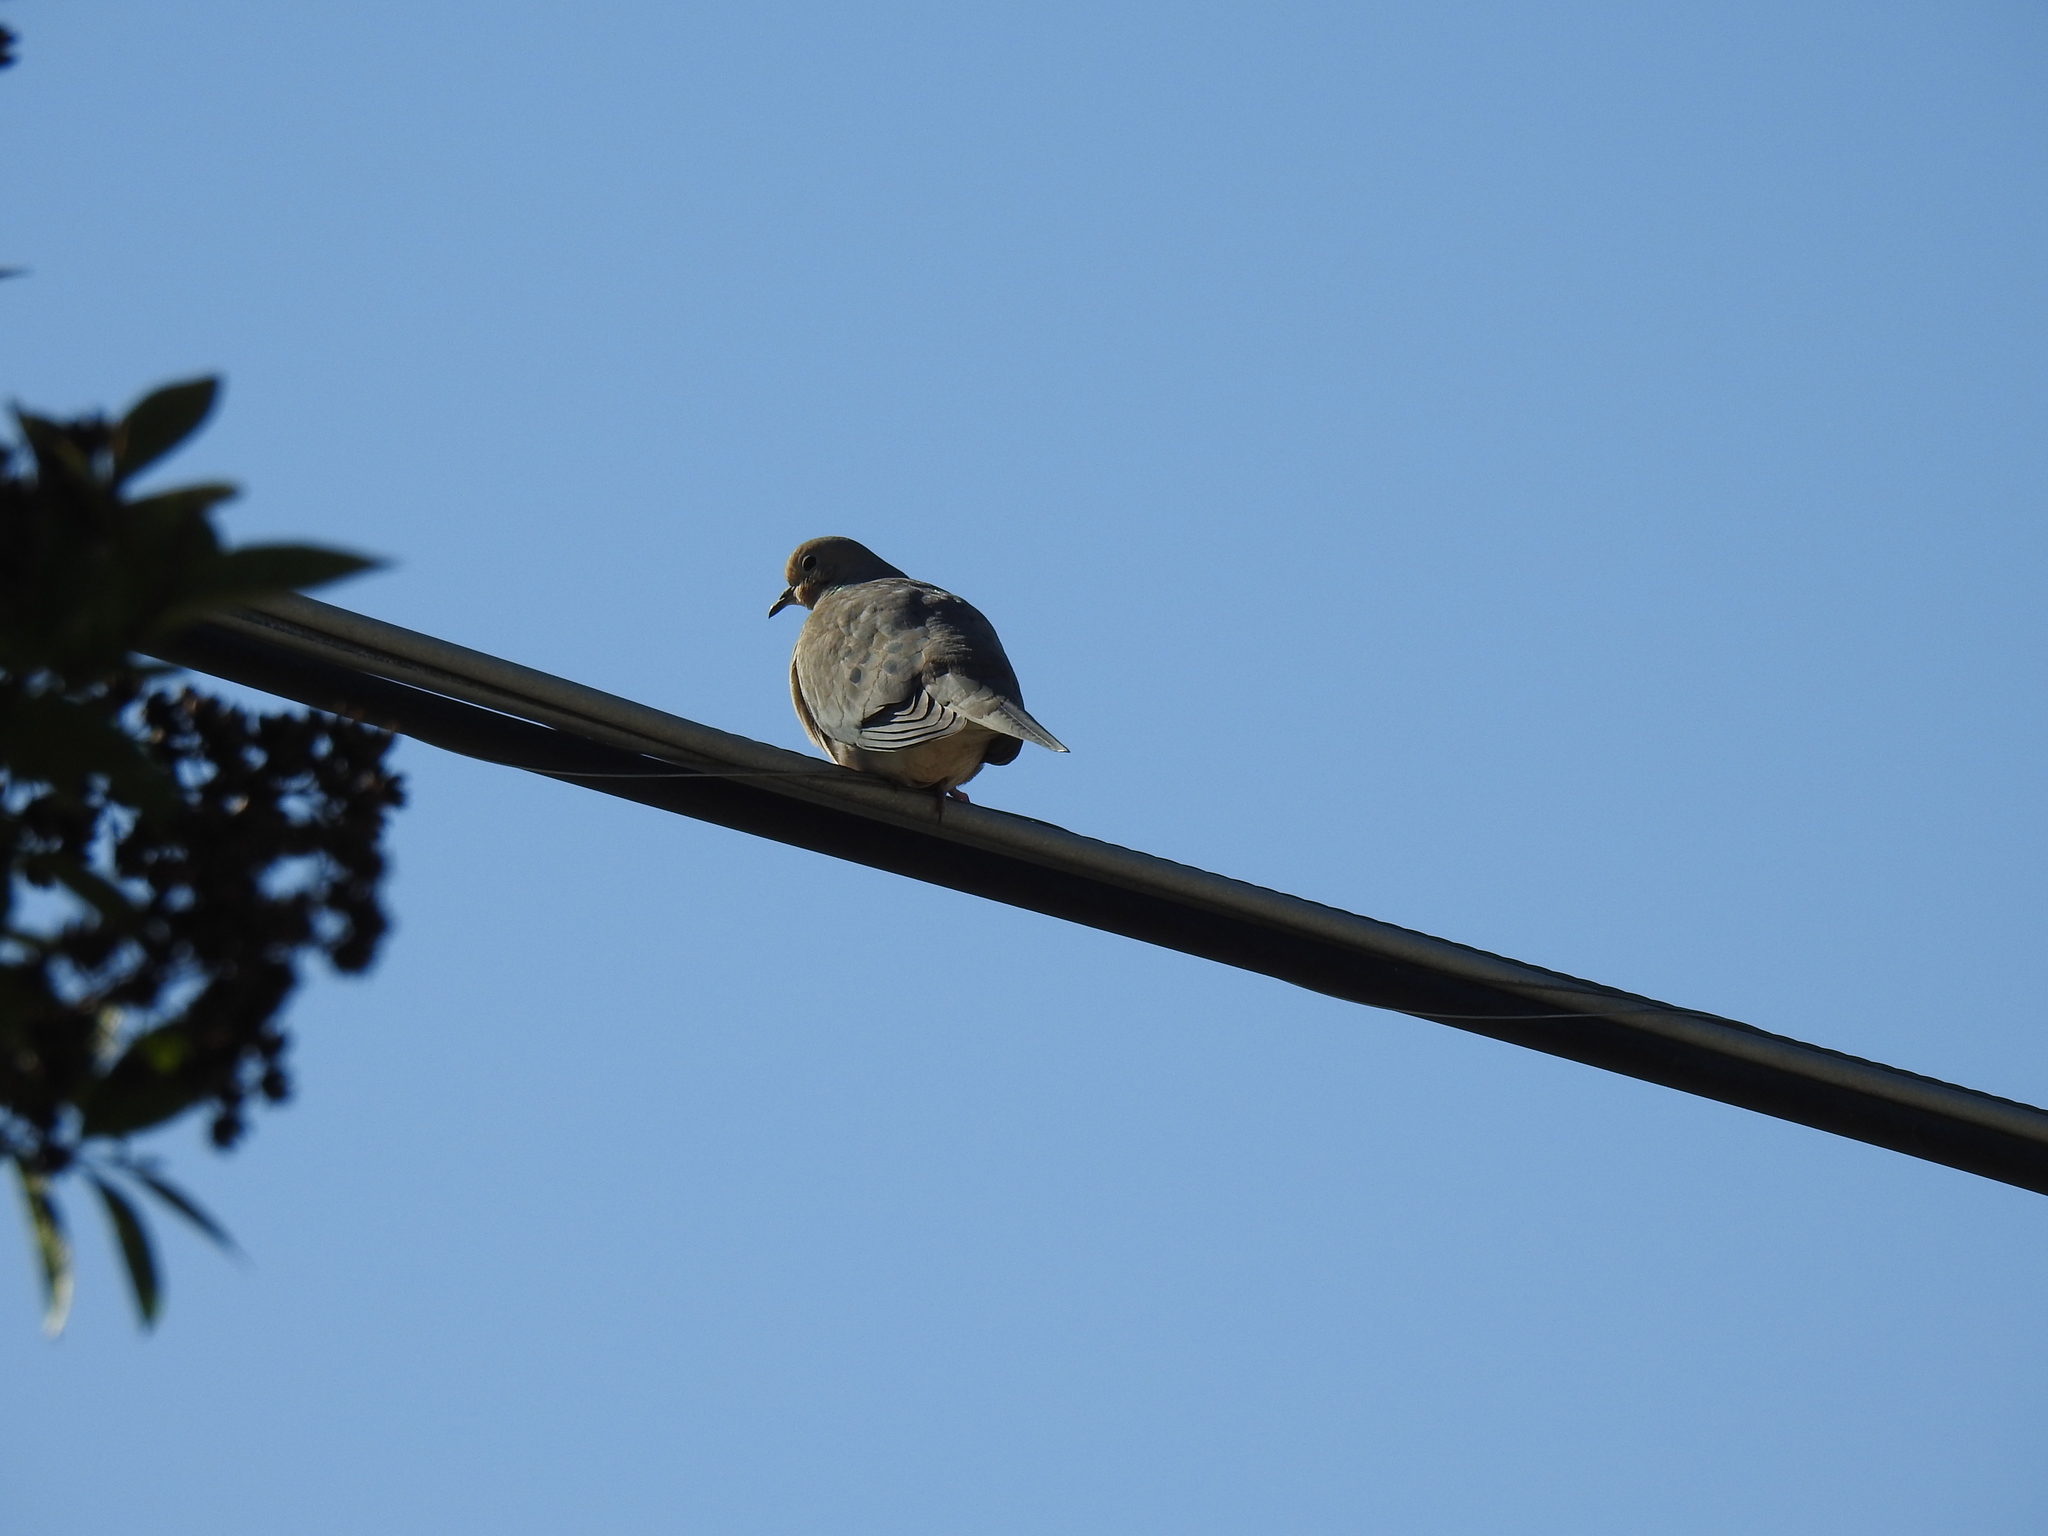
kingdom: Animalia
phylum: Chordata
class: Aves
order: Columbiformes
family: Columbidae
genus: Zenaida
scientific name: Zenaida macroura
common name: Mourning dove
